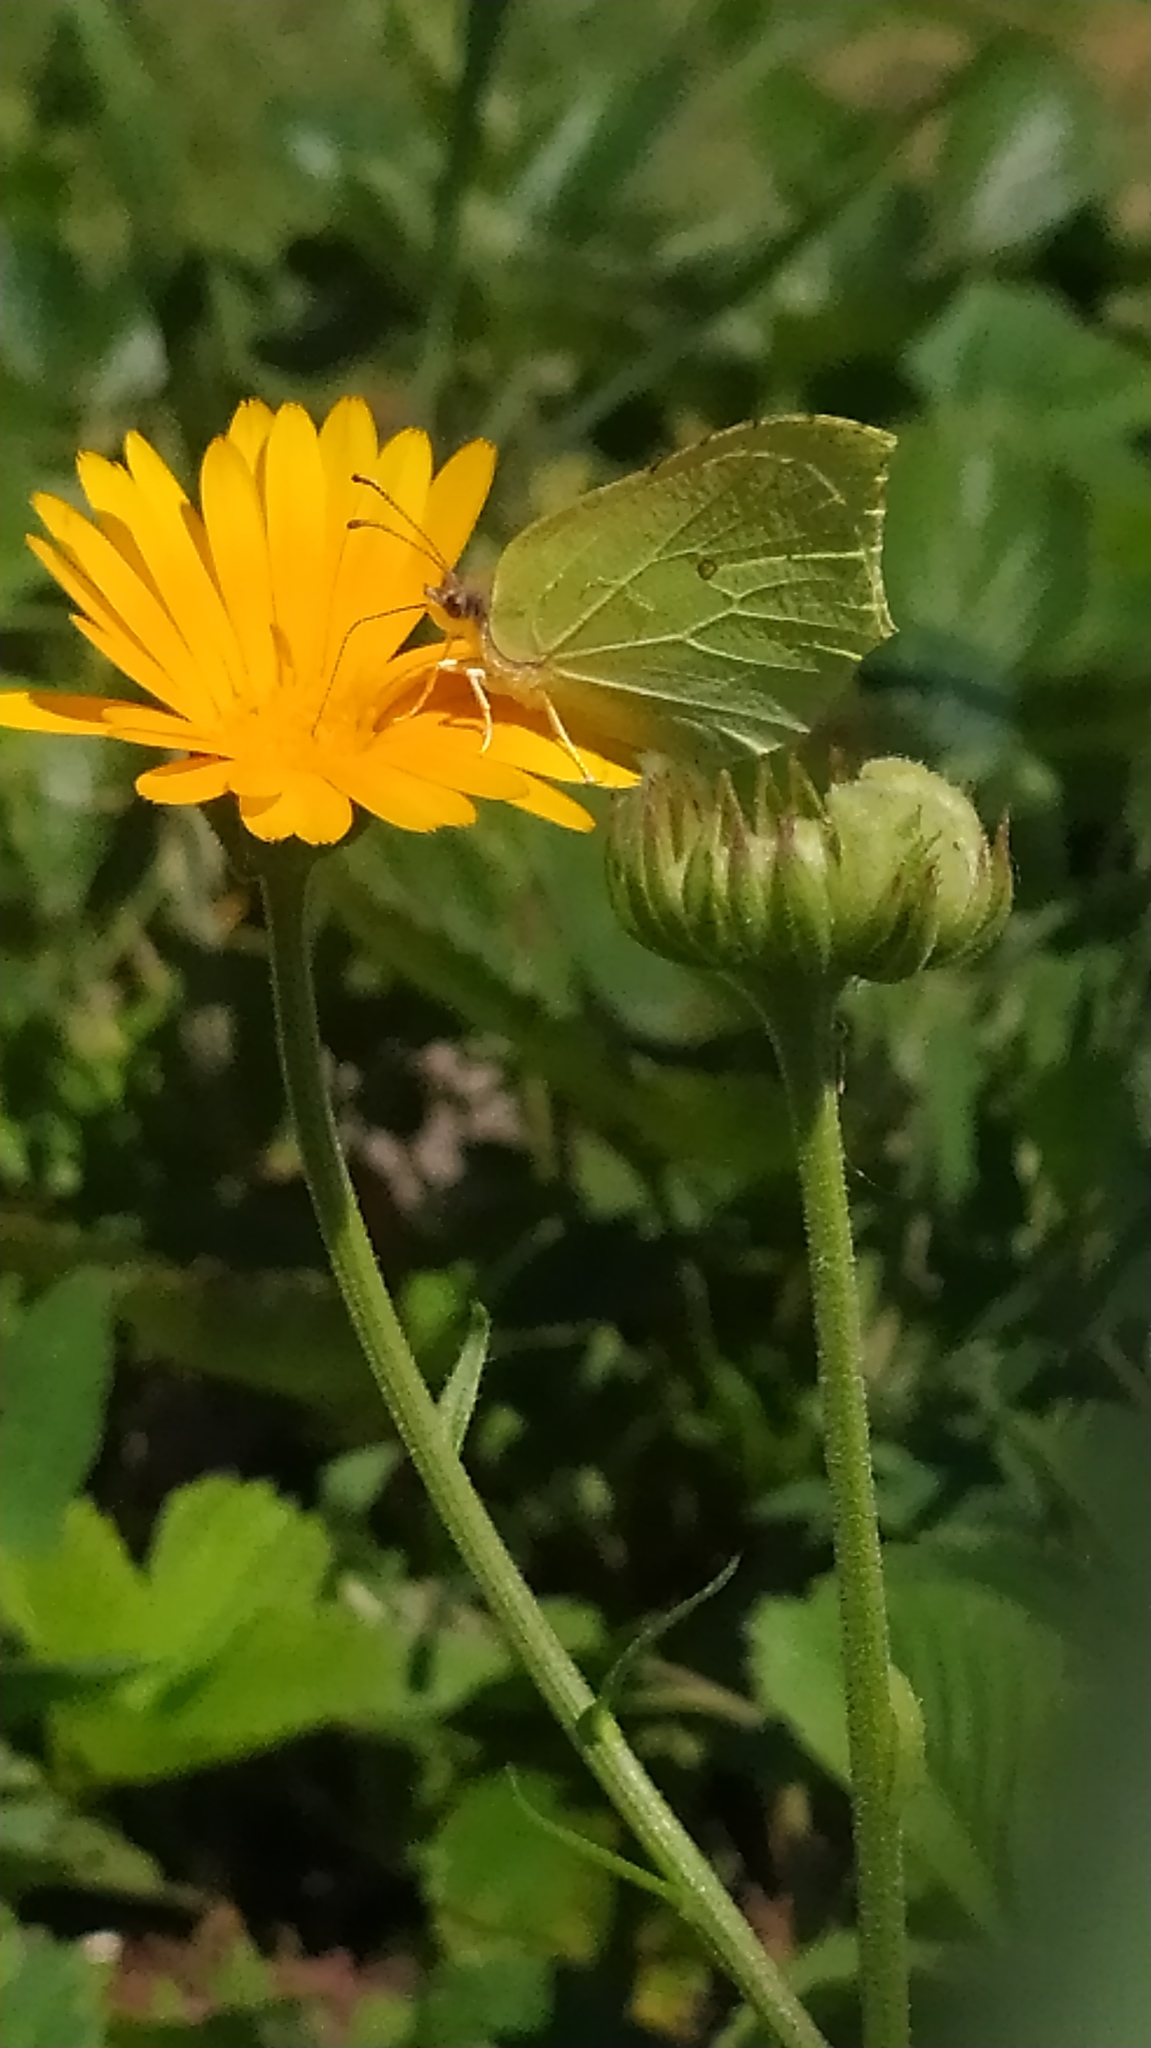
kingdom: Animalia
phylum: Arthropoda
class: Insecta
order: Lepidoptera
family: Pieridae
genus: Gonepteryx
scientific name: Gonepteryx rhamni
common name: Brimstone
